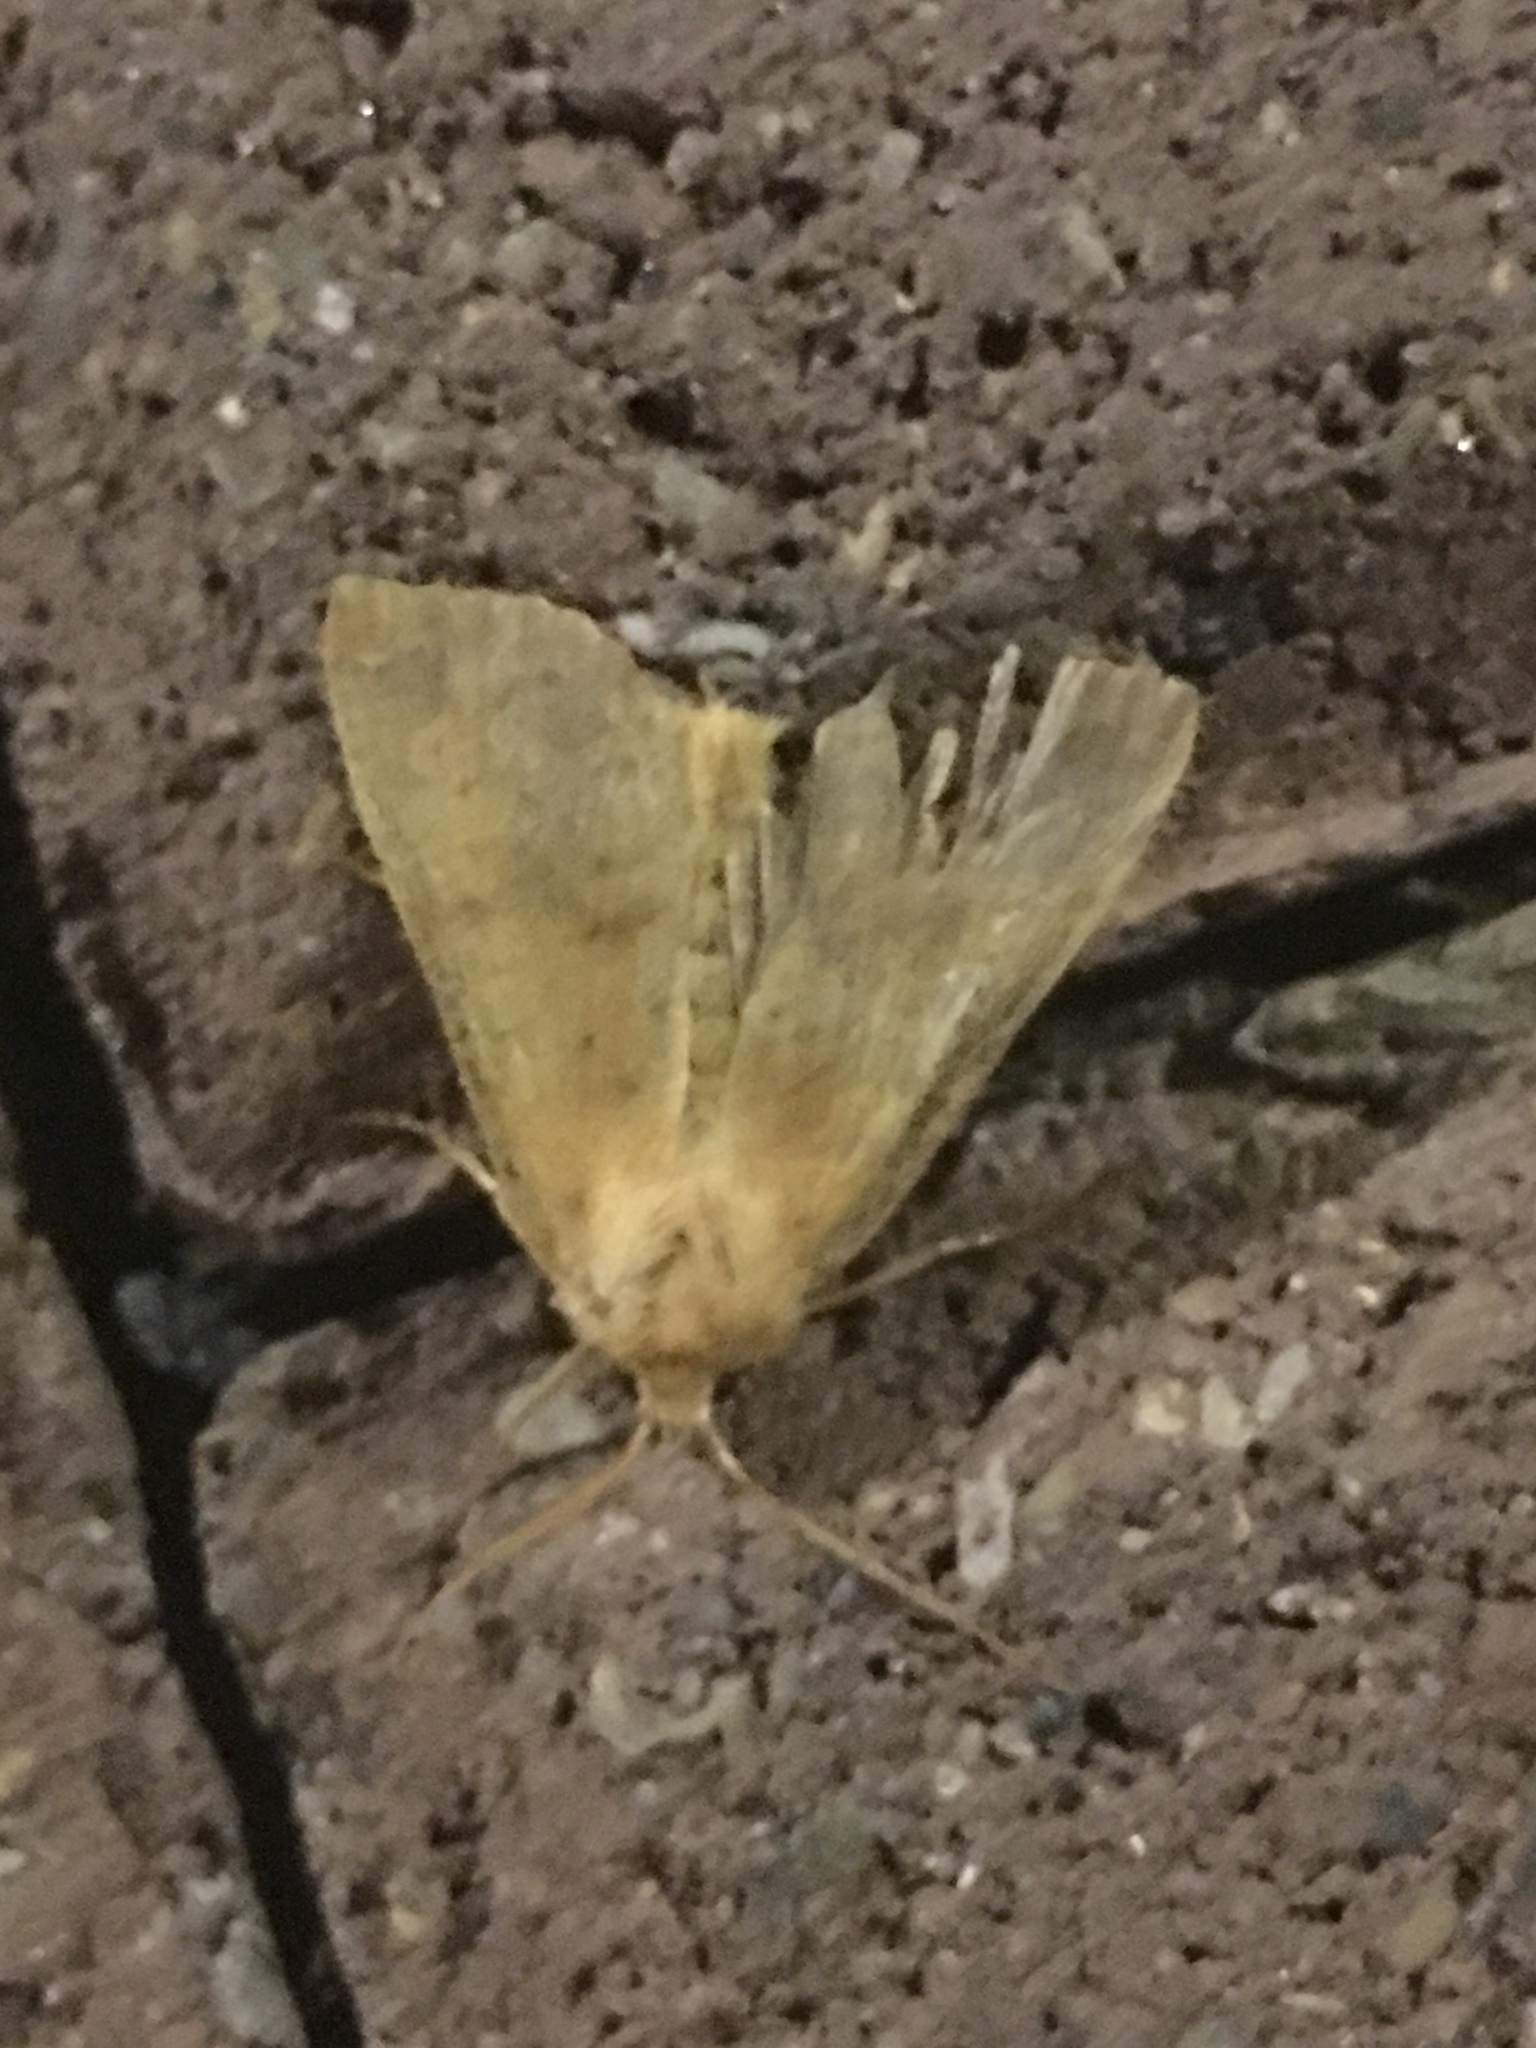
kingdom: Animalia
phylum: Arthropoda
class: Insecta
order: Lepidoptera
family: Noctuidae
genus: Agrochola
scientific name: Agrochola bicolorago
